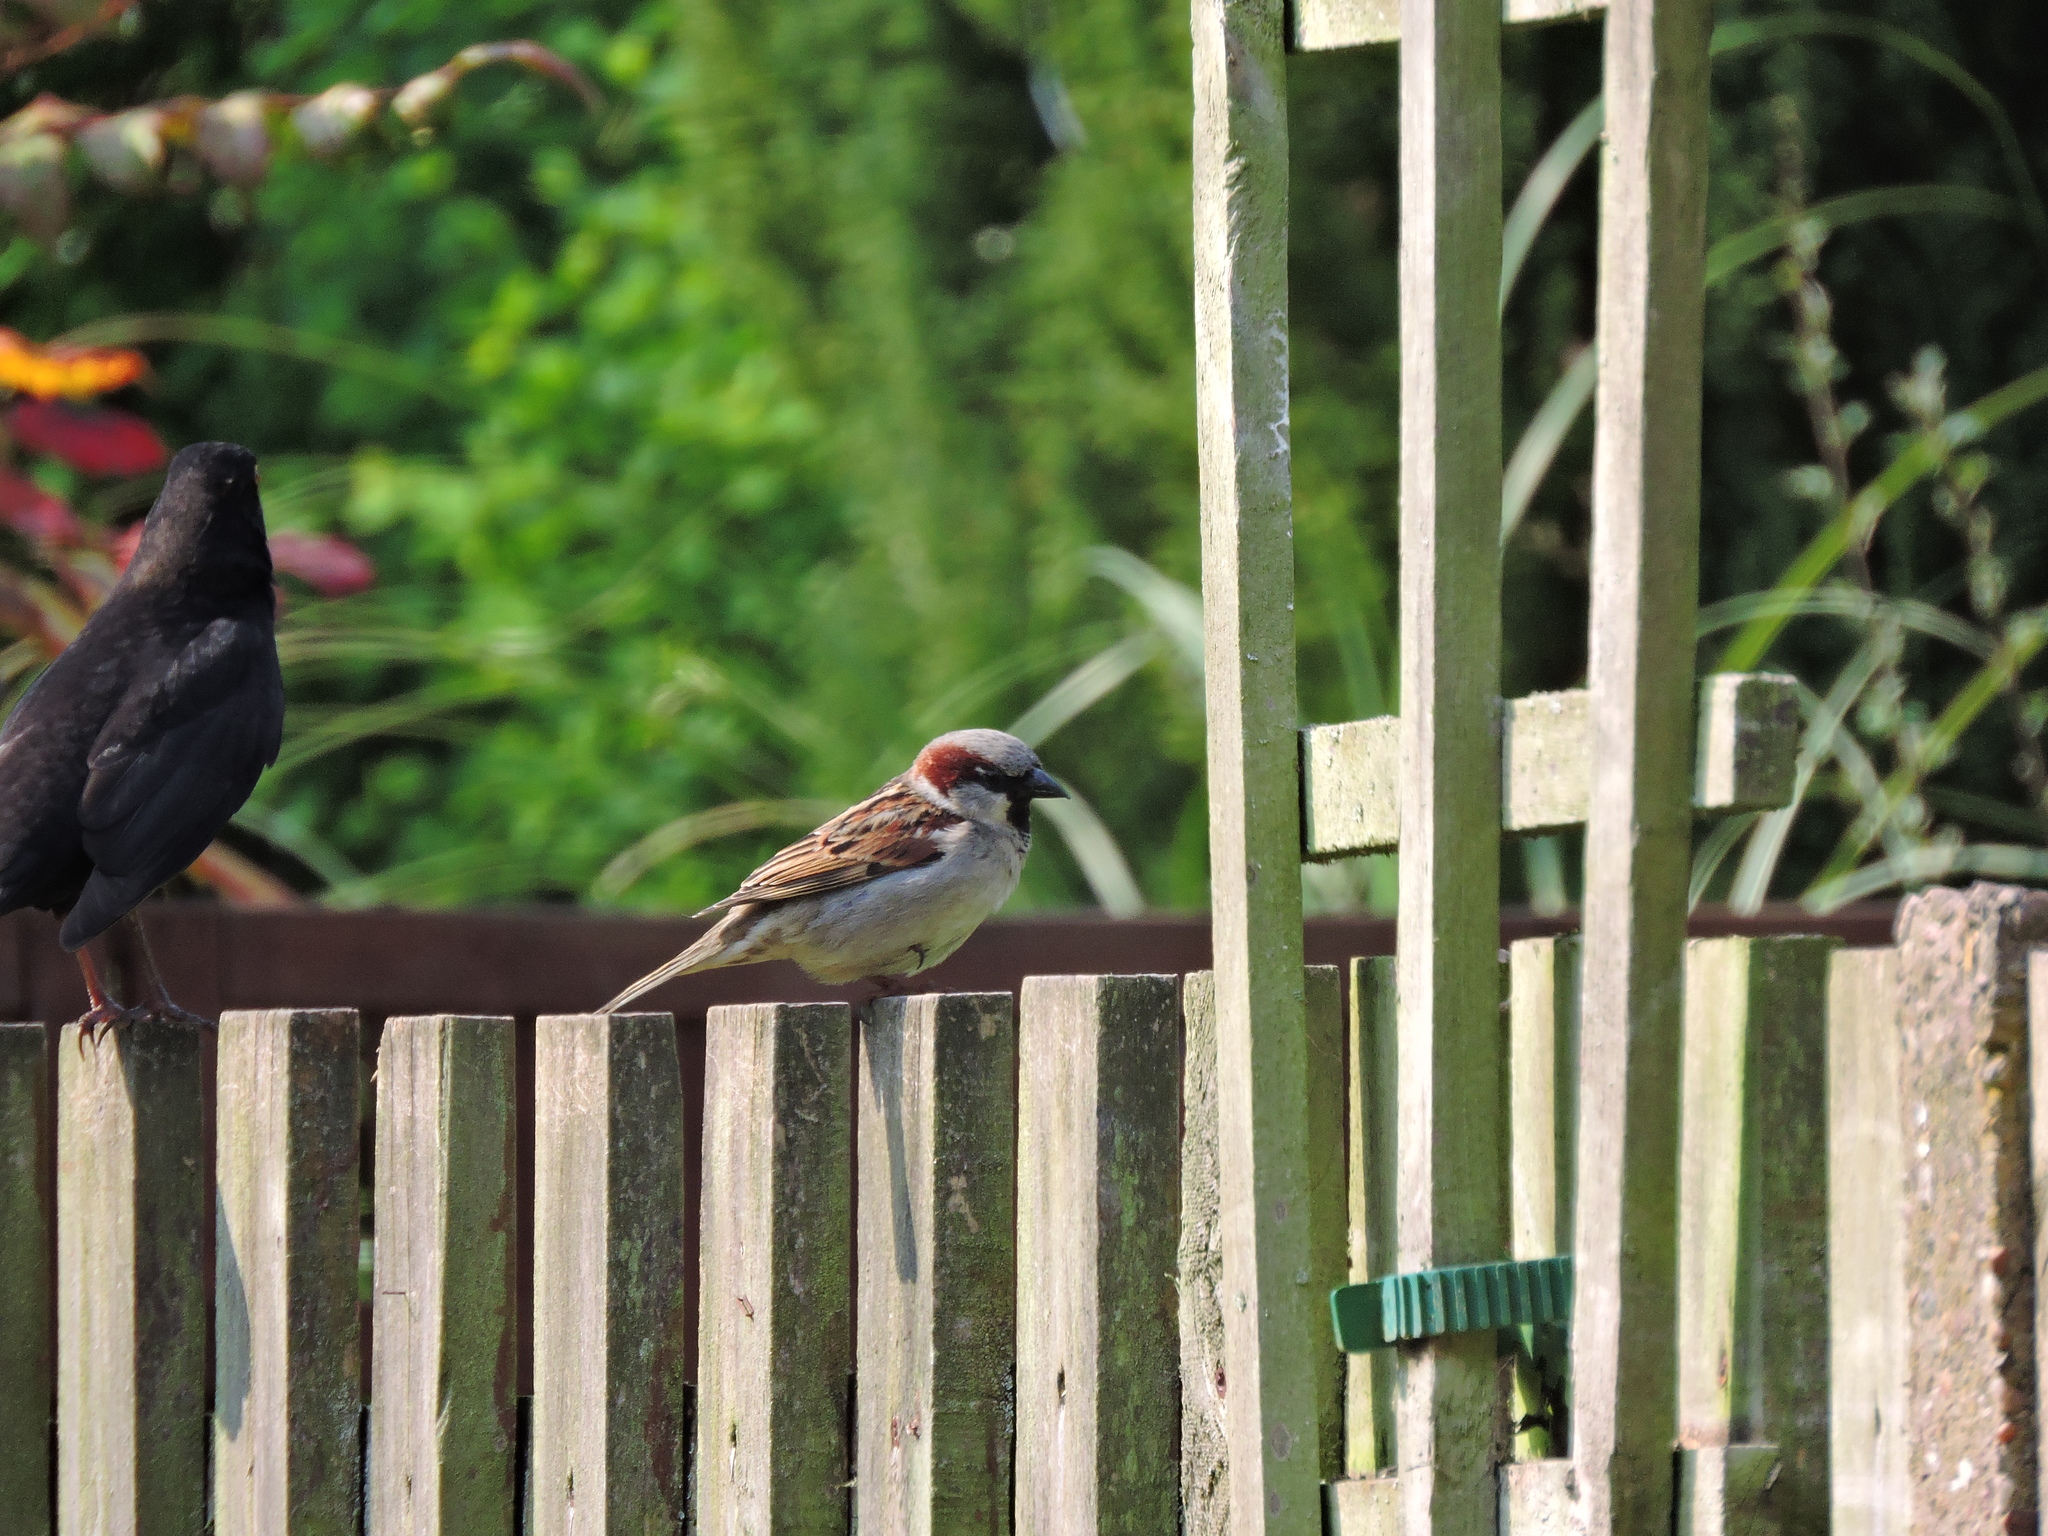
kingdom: Animalia
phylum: Chordata
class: Aves
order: Passeriformes
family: Passeridae
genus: Passer
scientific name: Passer domesticus
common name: House sparrow
